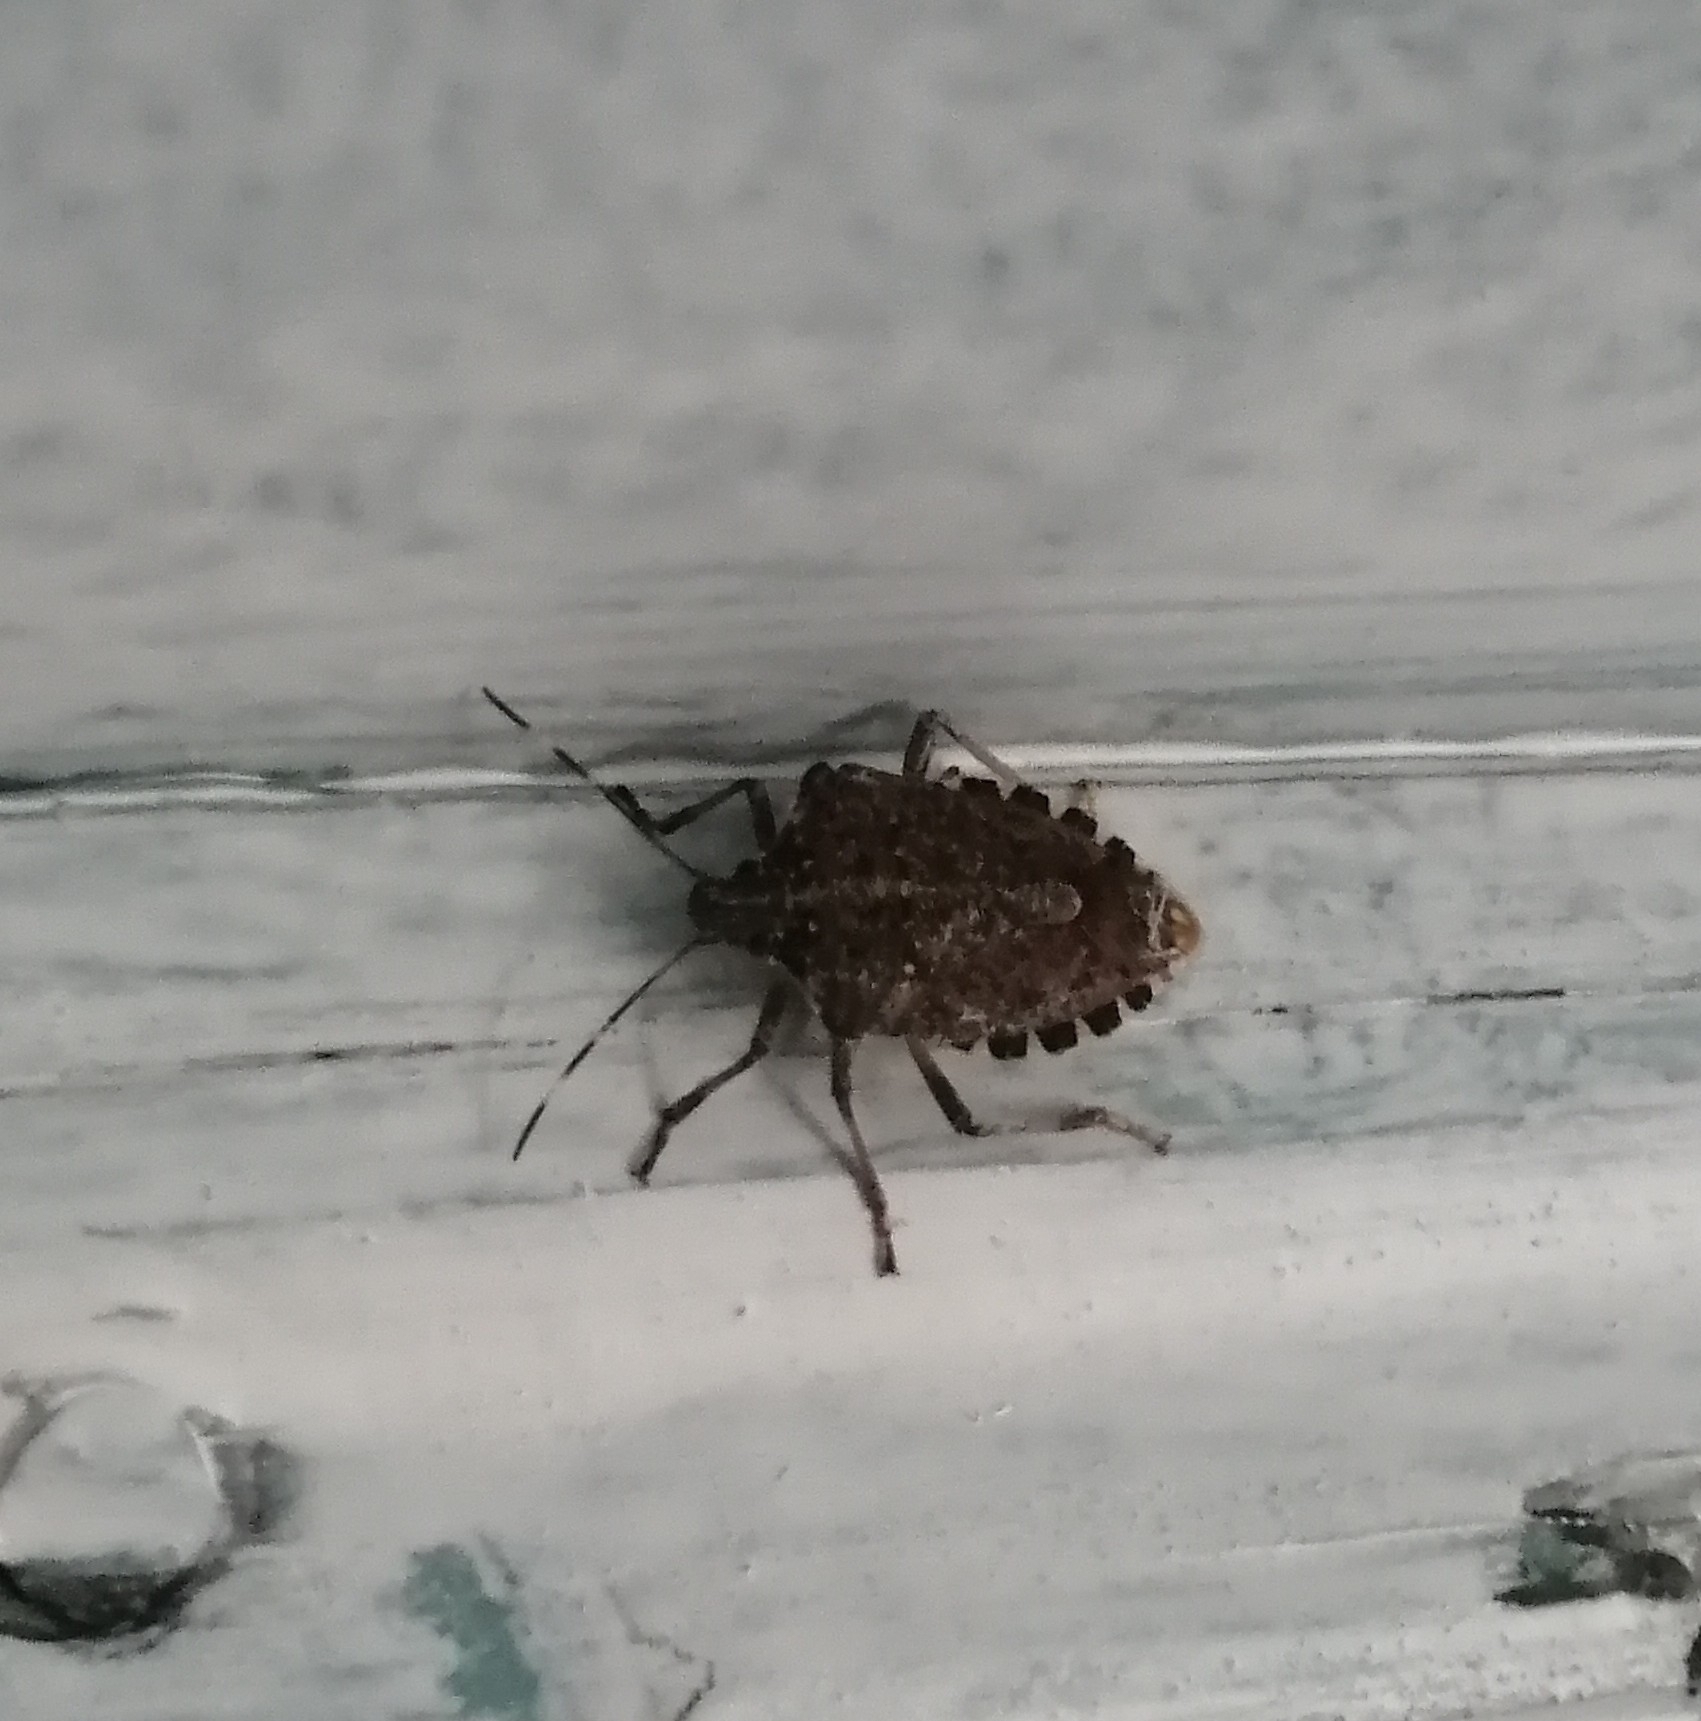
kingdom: Animalia
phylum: Arthropoda
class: Insecta
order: Hemiptera
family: Pentatomidae
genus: Halyomorpha
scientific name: Halyomorpha halys
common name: Brown marmorated stink bug
